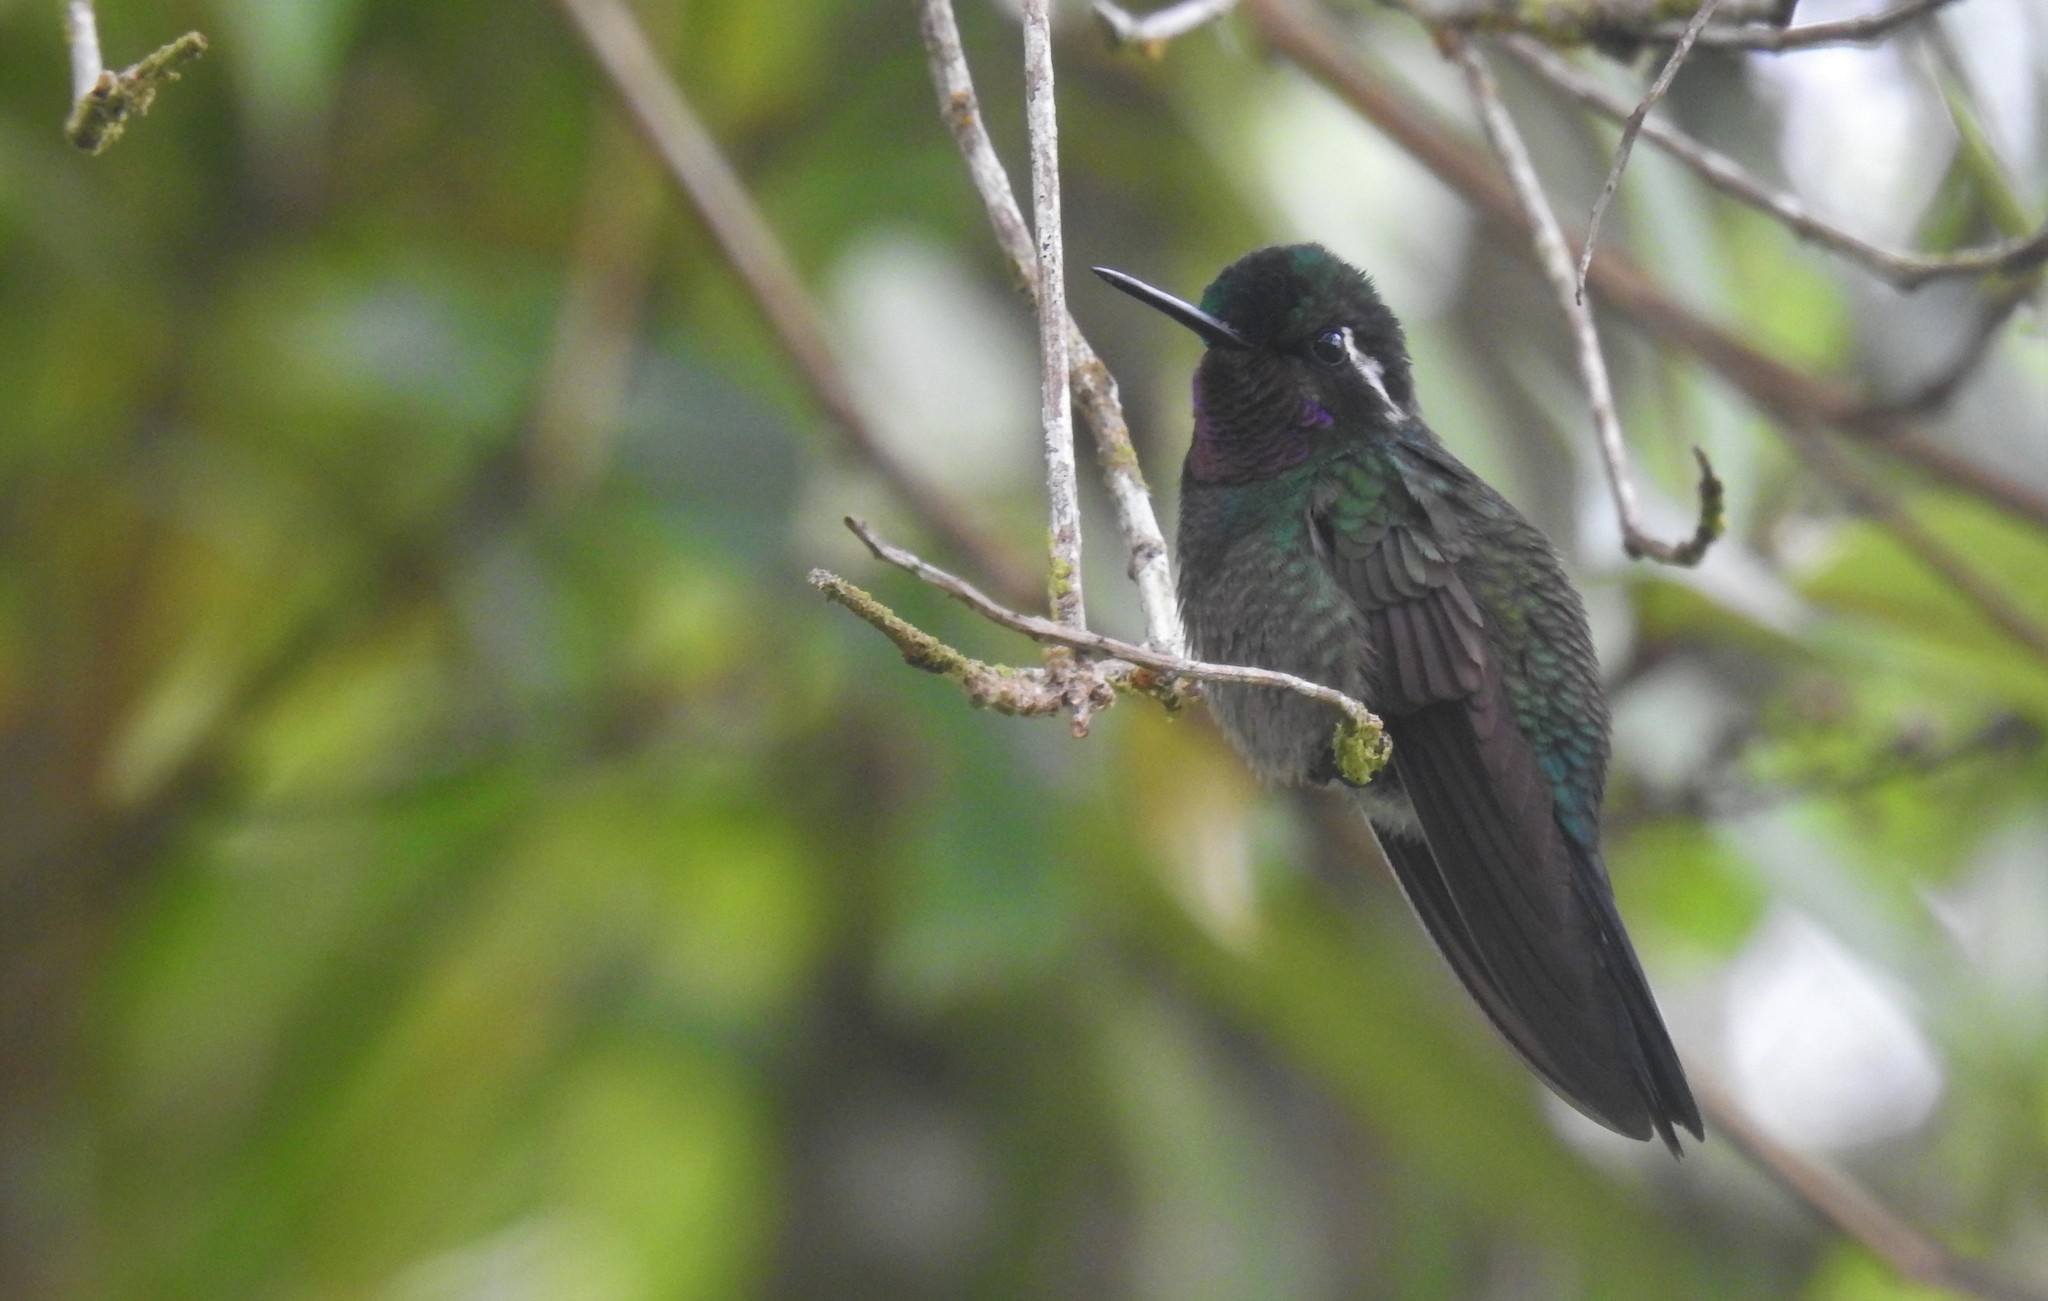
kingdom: Animalia
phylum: Chordata
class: Aves
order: Apodiformes
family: Trochilidae
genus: Lampornis
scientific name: Lampornis calolaemus
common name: Purple-throated mountain-gem
